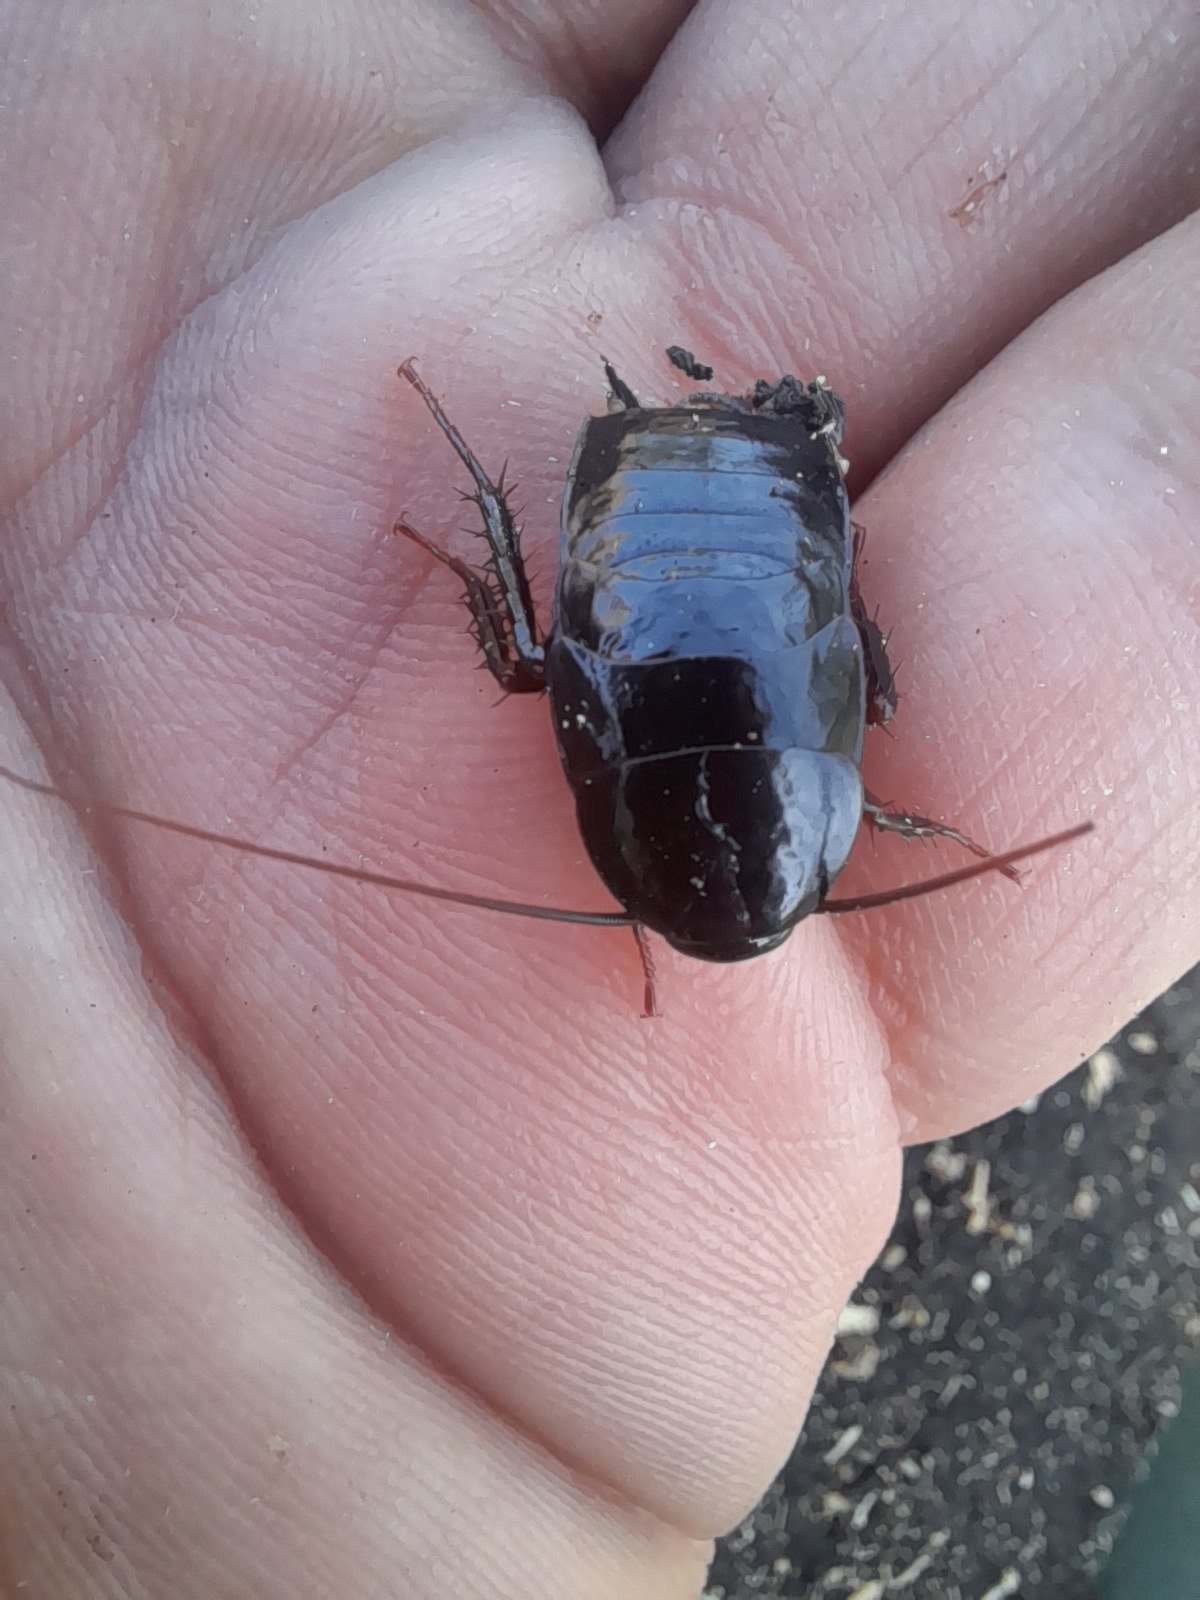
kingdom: Animalia
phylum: Arthropoda
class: Insecta
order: Blattodea
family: Blattidae
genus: Blatta
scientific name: Blatta orientalis
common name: Oriental cockroach
